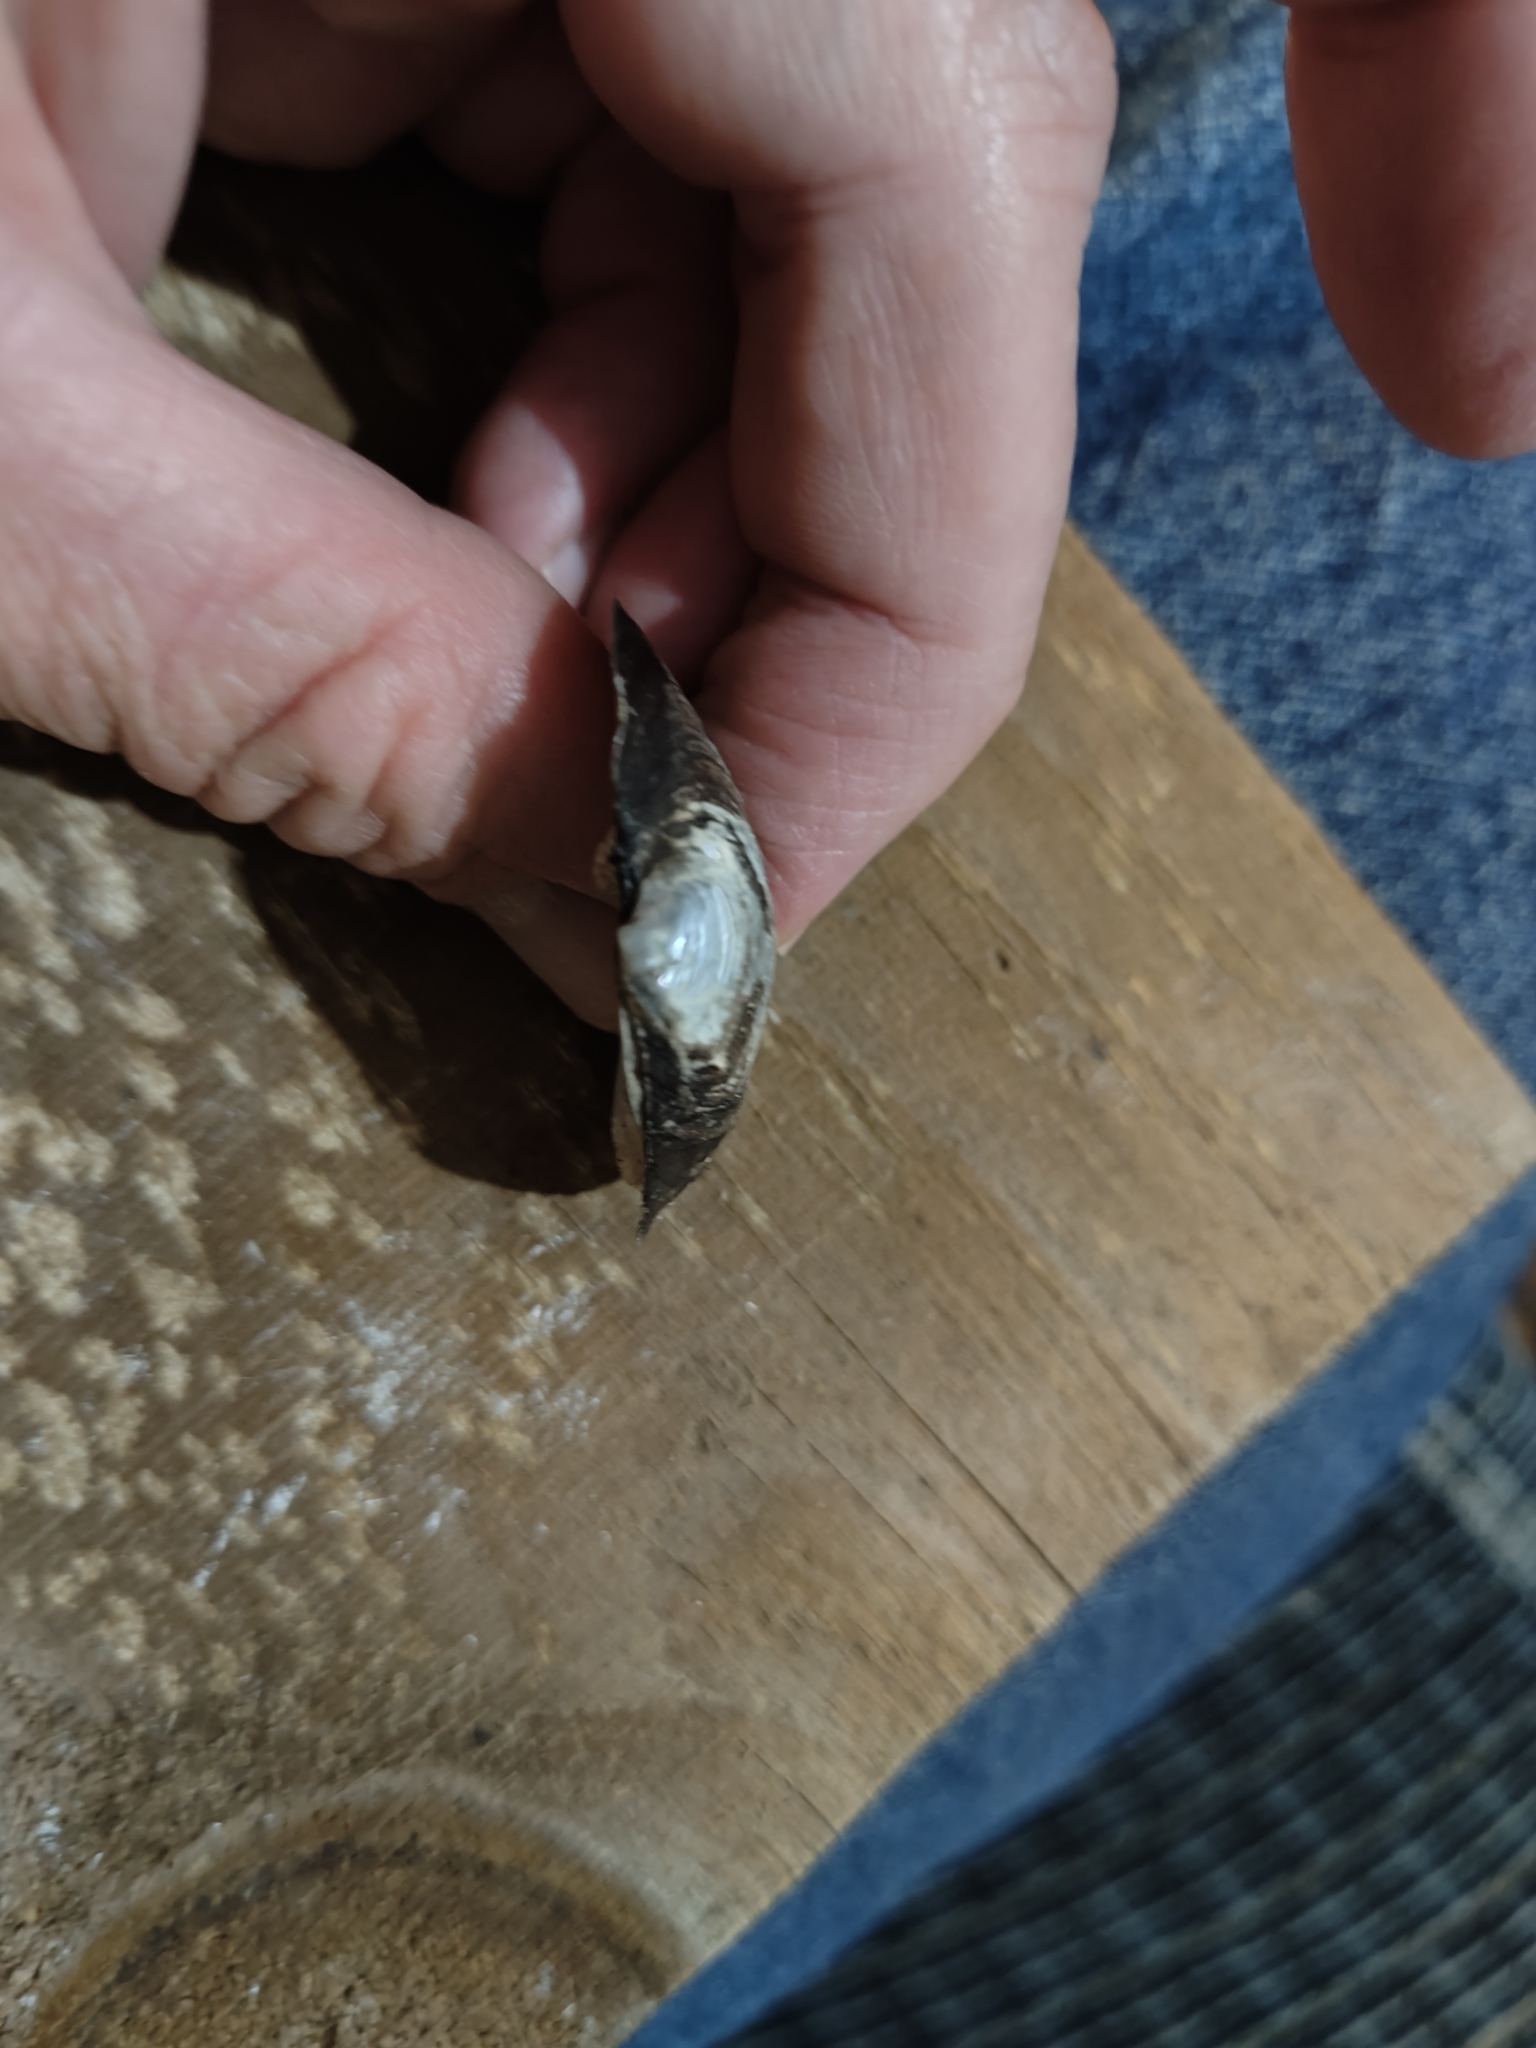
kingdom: Animalia
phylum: Mollusca
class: Bivalvia
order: Unionida
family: Unionidae
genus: Fusconaia
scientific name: Fusconaia flava
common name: Wabash pigtoe
